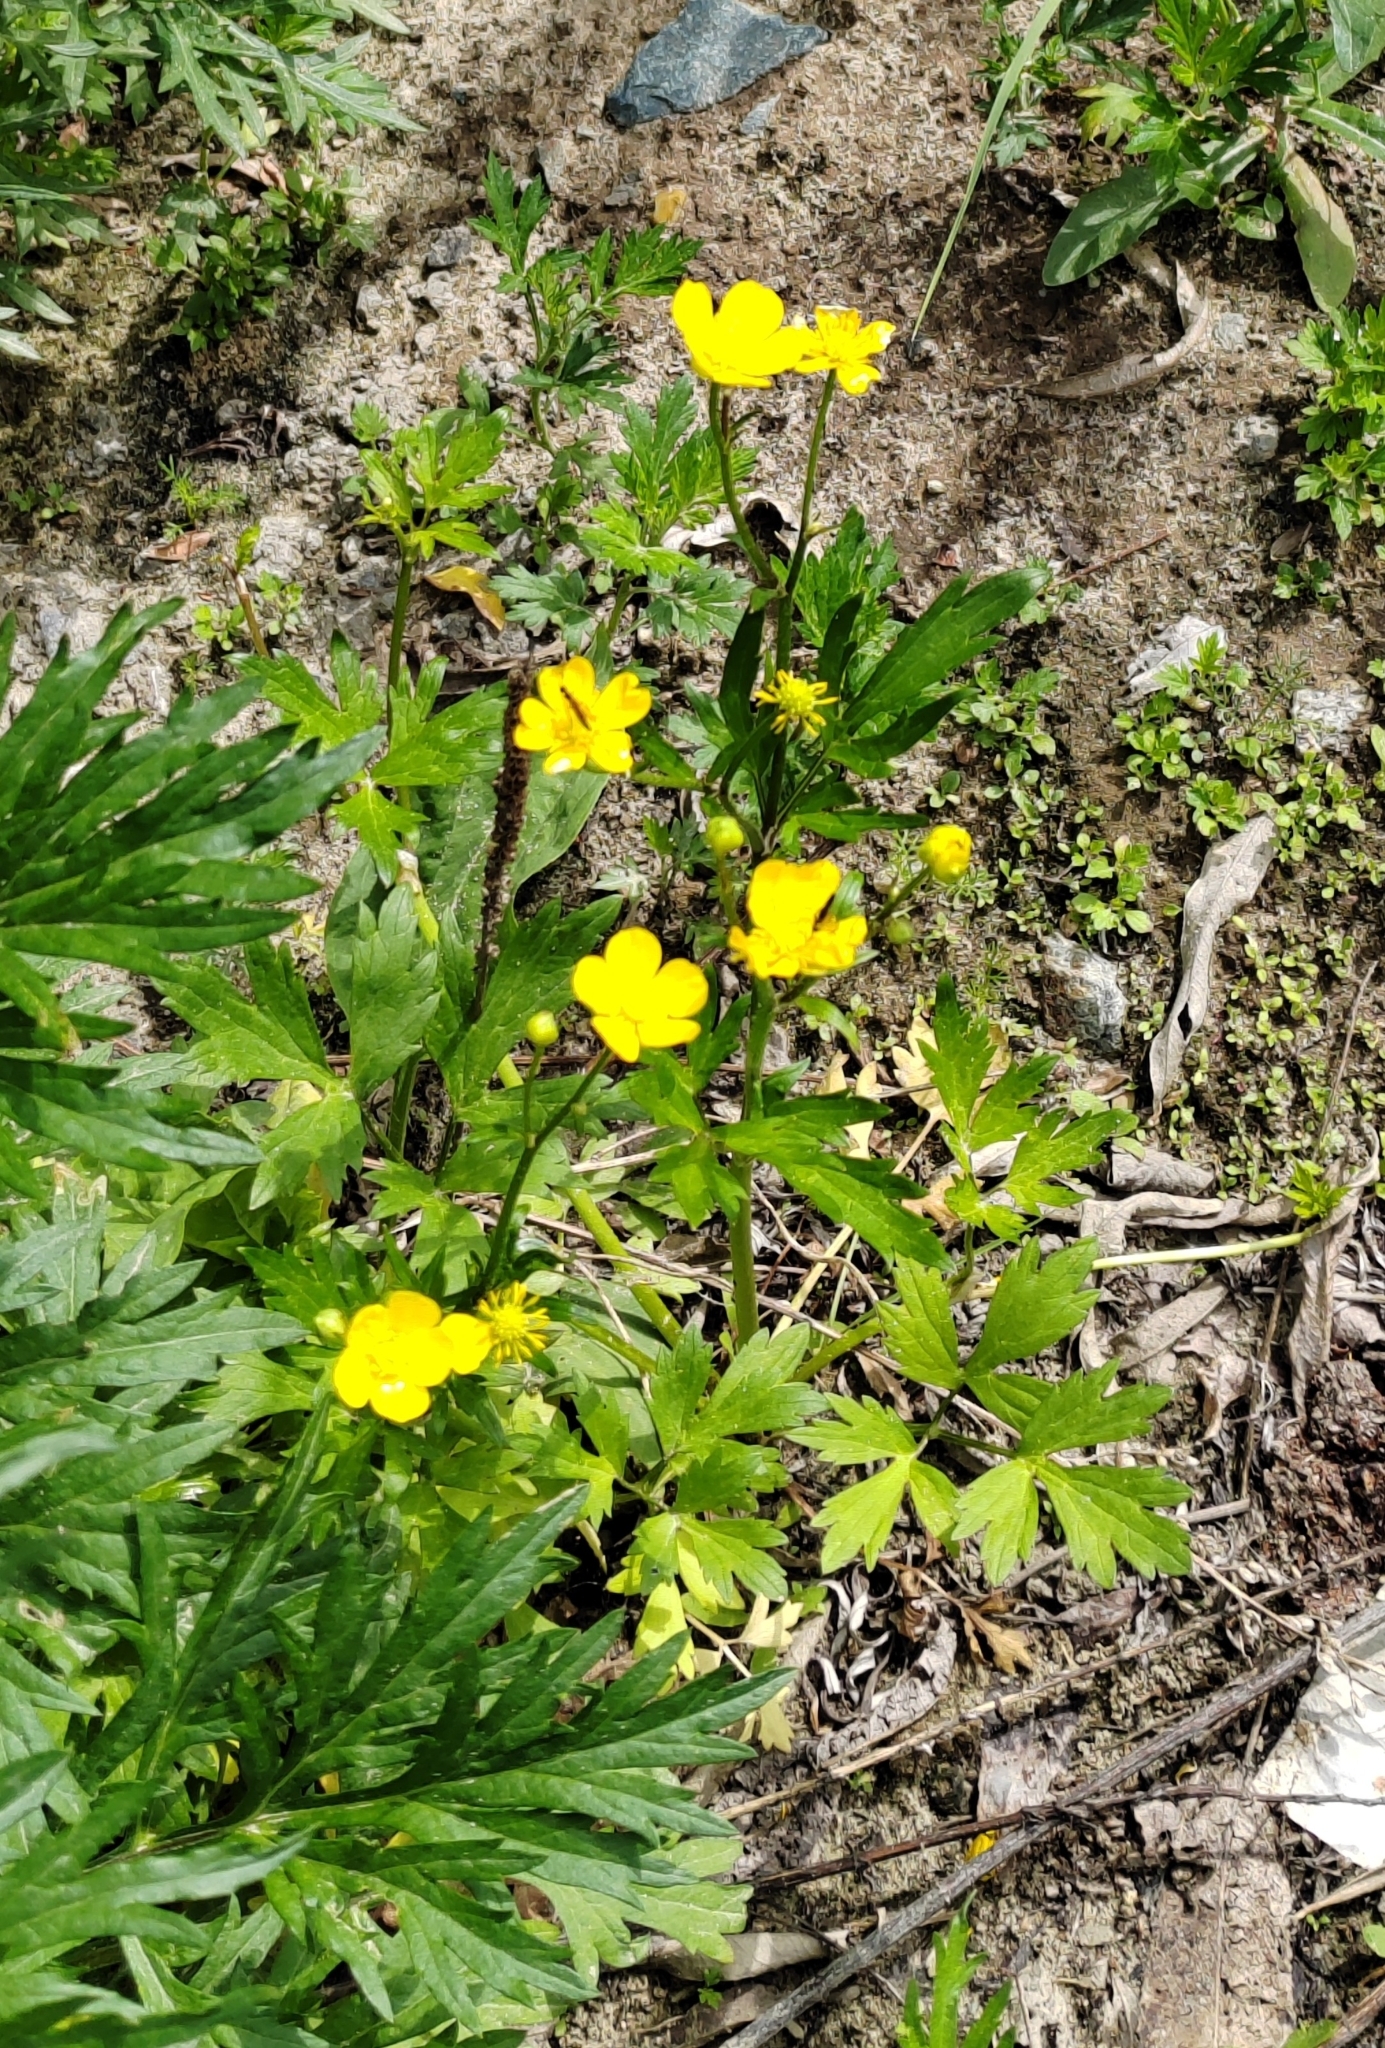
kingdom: Plantae
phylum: Tracheophyta
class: Magnoliopsida
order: Ranunculales
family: Ranunculaceae
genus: Ranunculus
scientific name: Ranunculus repens
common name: Creeping buttercup
